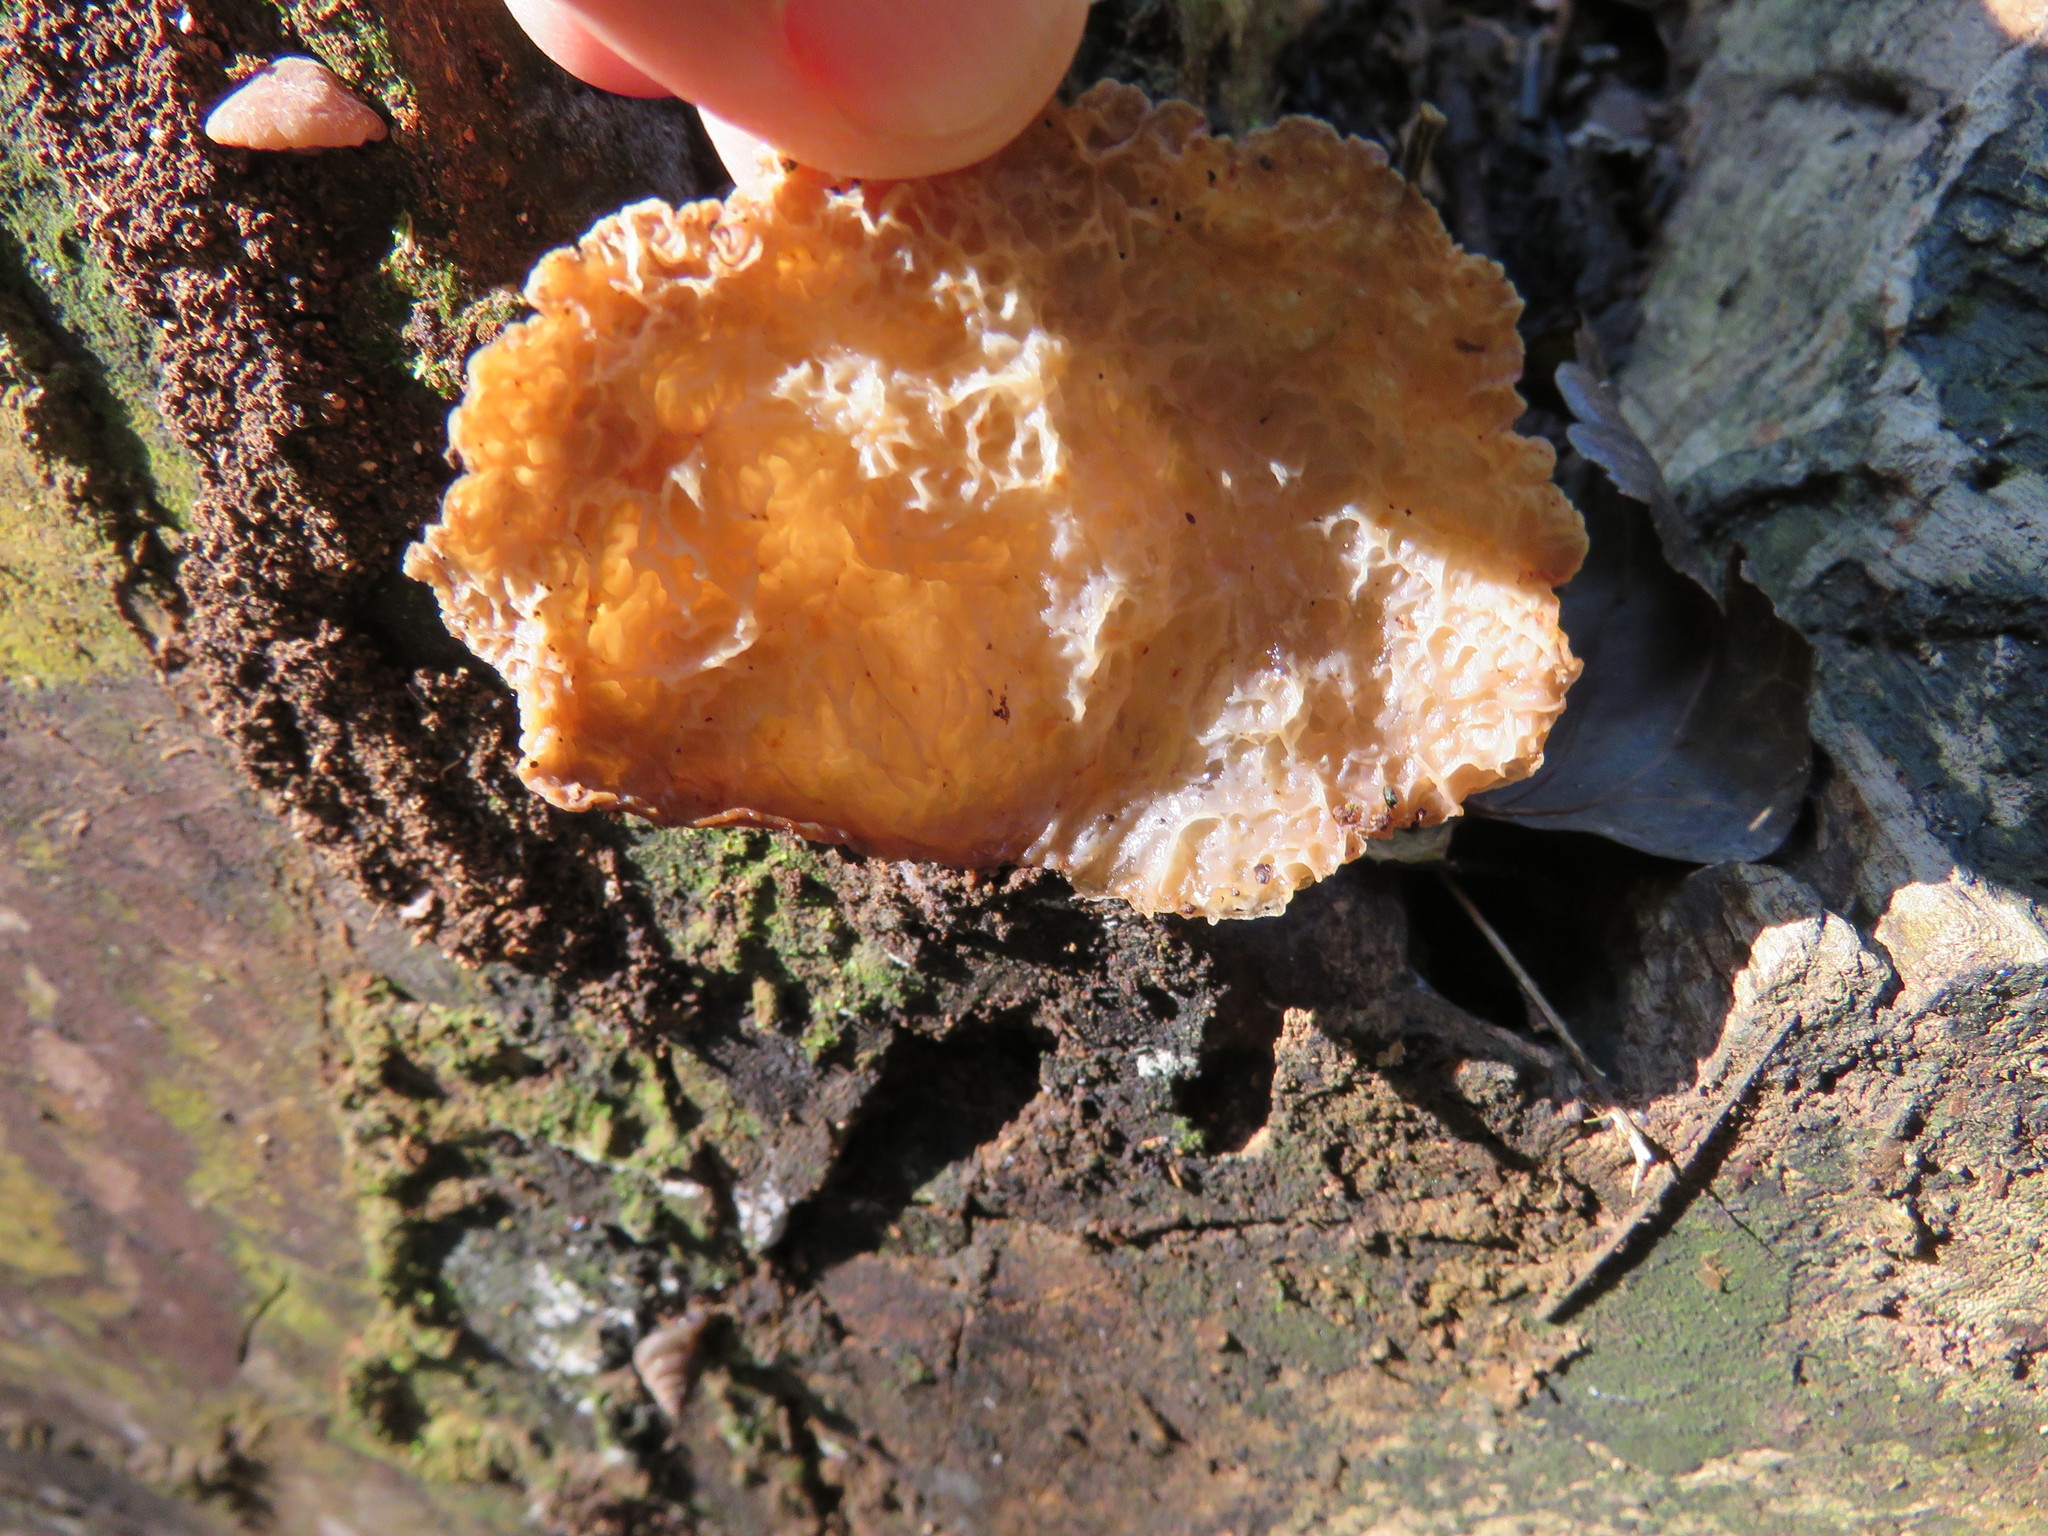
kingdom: Fungi
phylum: Basidiomycota
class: Agaricomycetes
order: Auriculariales
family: Auriculariaceae
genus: Auricularia
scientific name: Auricularia delicata
